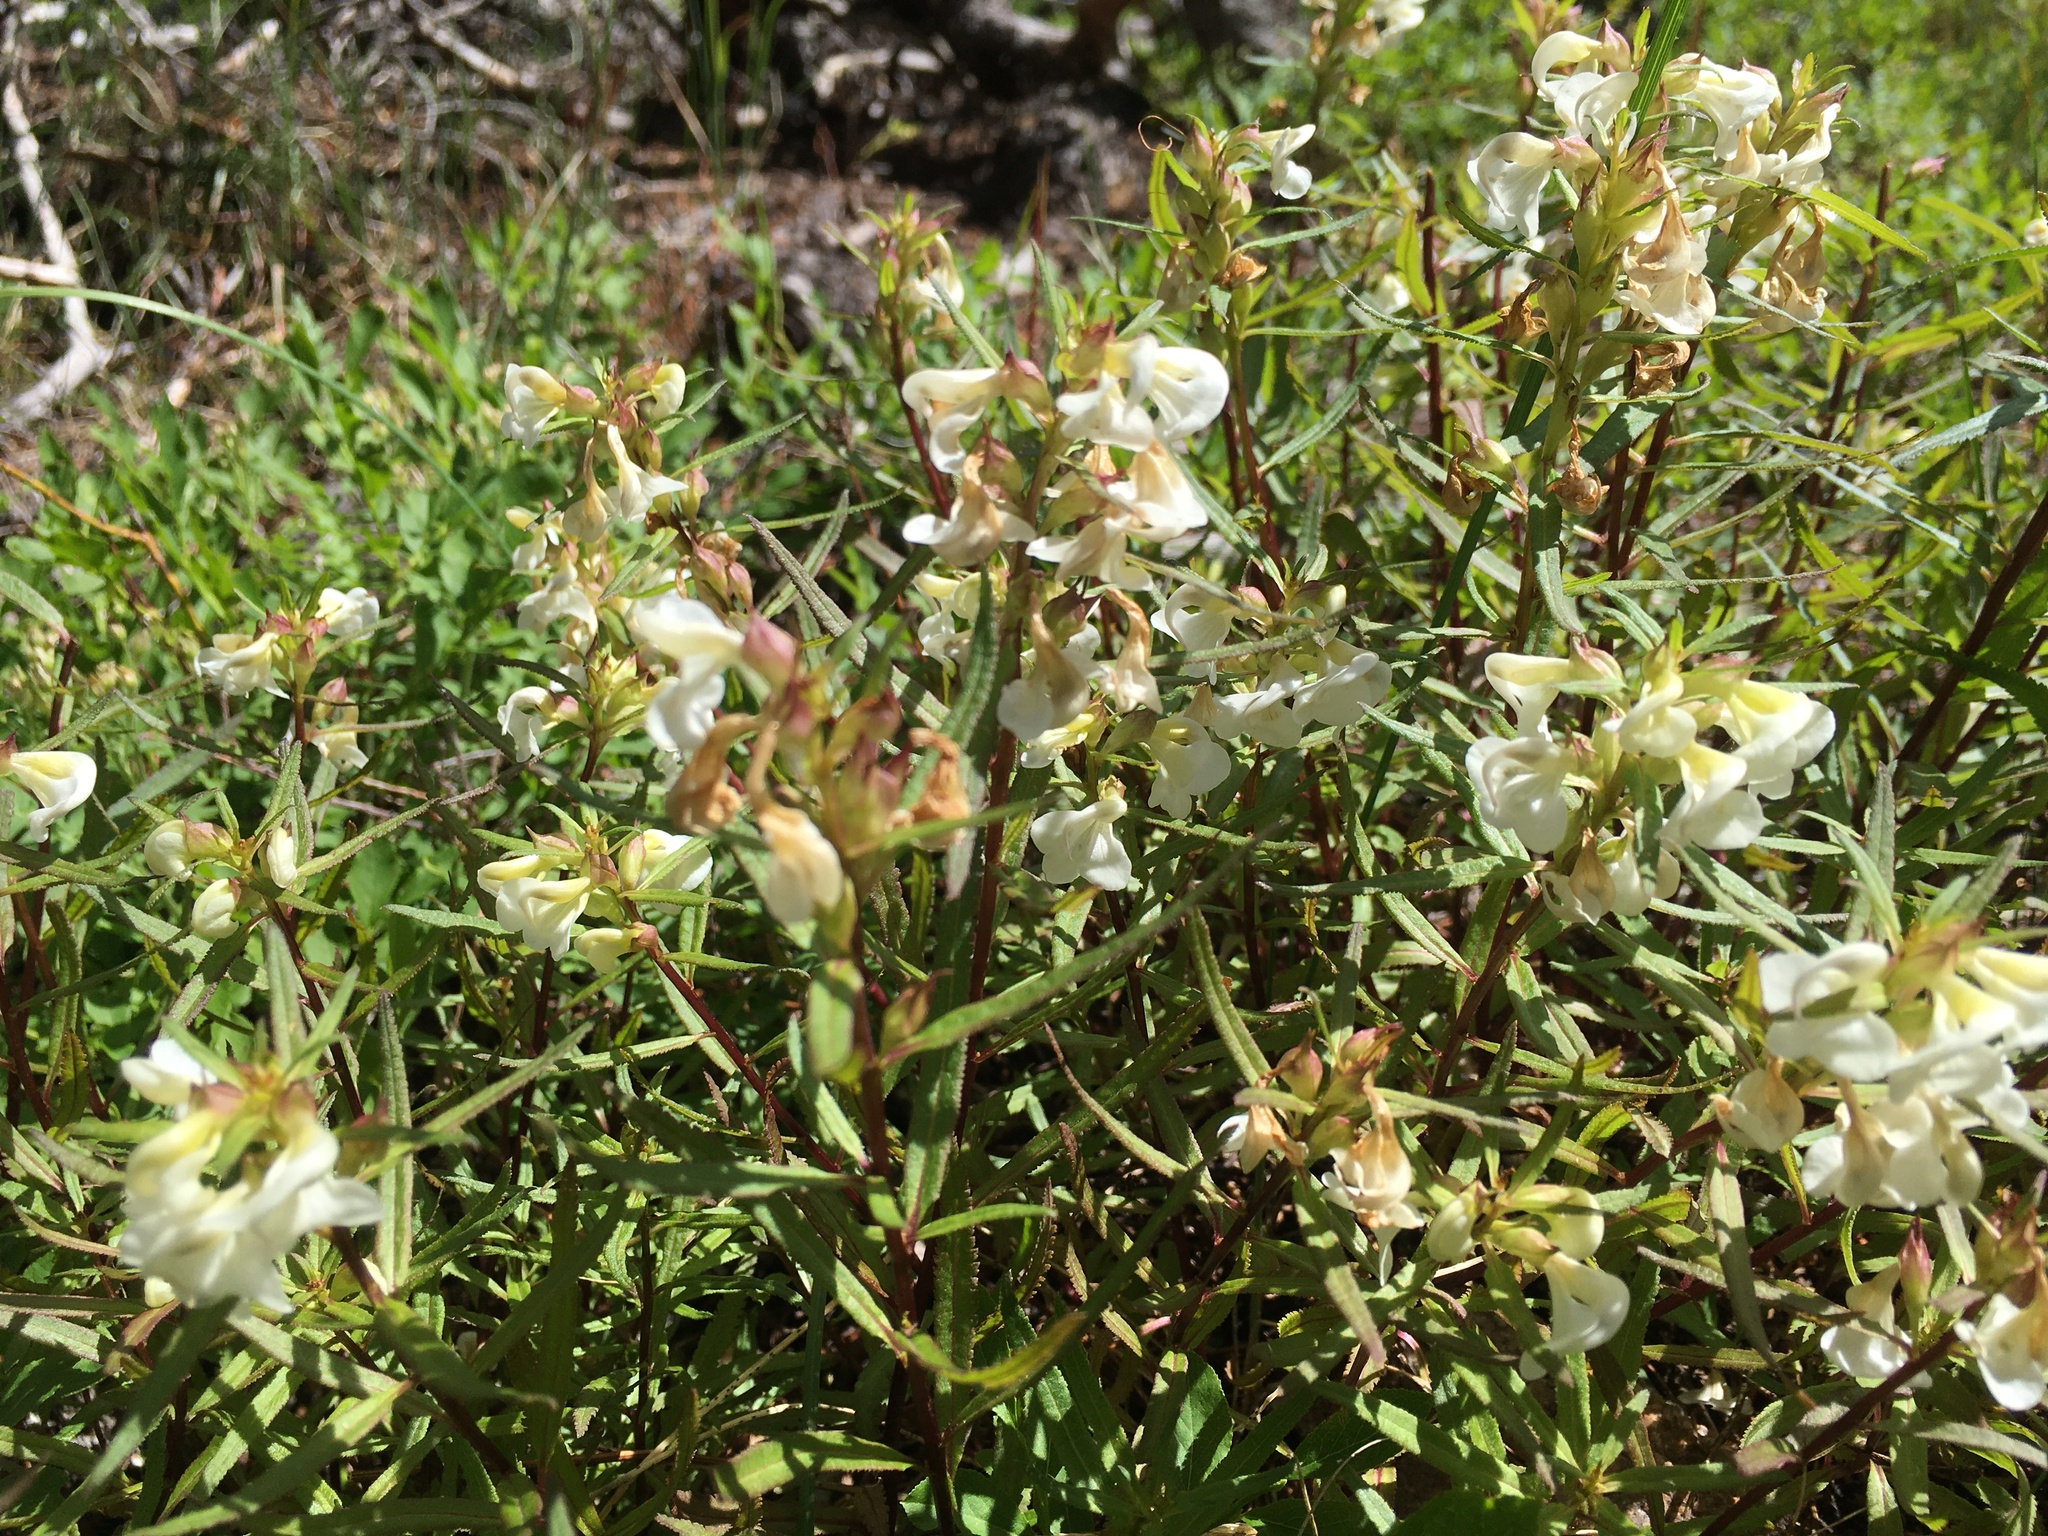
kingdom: Plantae
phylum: Tracheophyta
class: Magnoliopsida
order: Lamiales
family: Orobanchaceae
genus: Pedicularis
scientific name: Pedicularis racemosa
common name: Leafy lousewort
